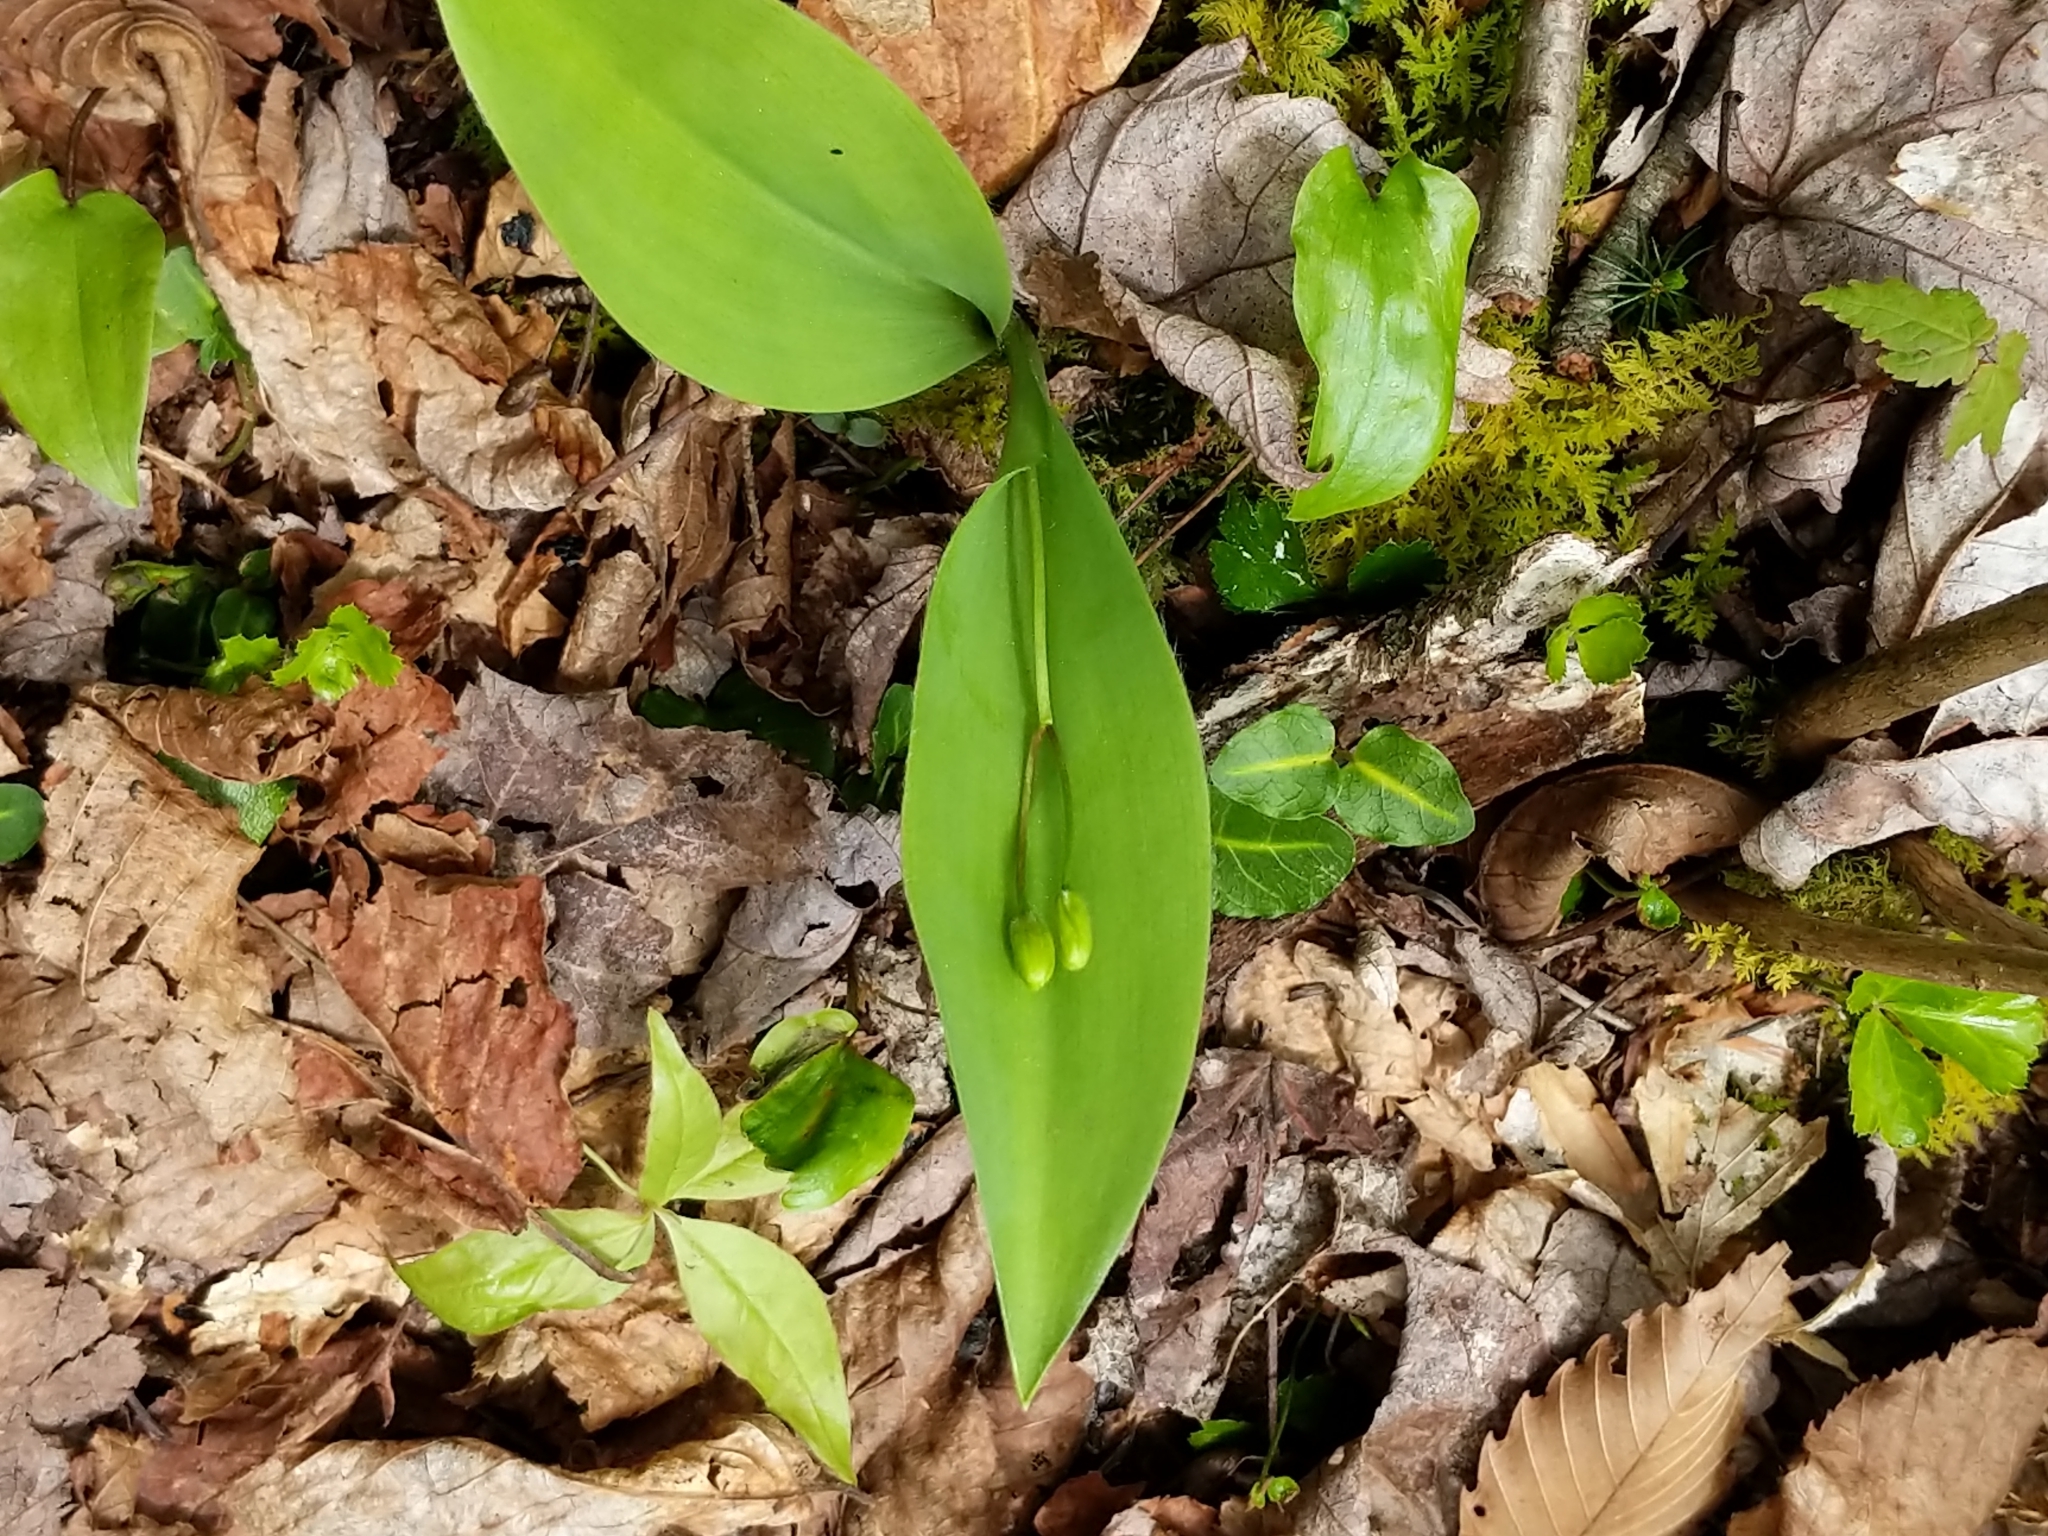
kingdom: Plantae
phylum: Tracheophyta
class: Liliopsida
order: Liliales
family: Liliaceae
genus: Clintonia
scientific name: Clintonia borealis
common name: Yellow clintonia
